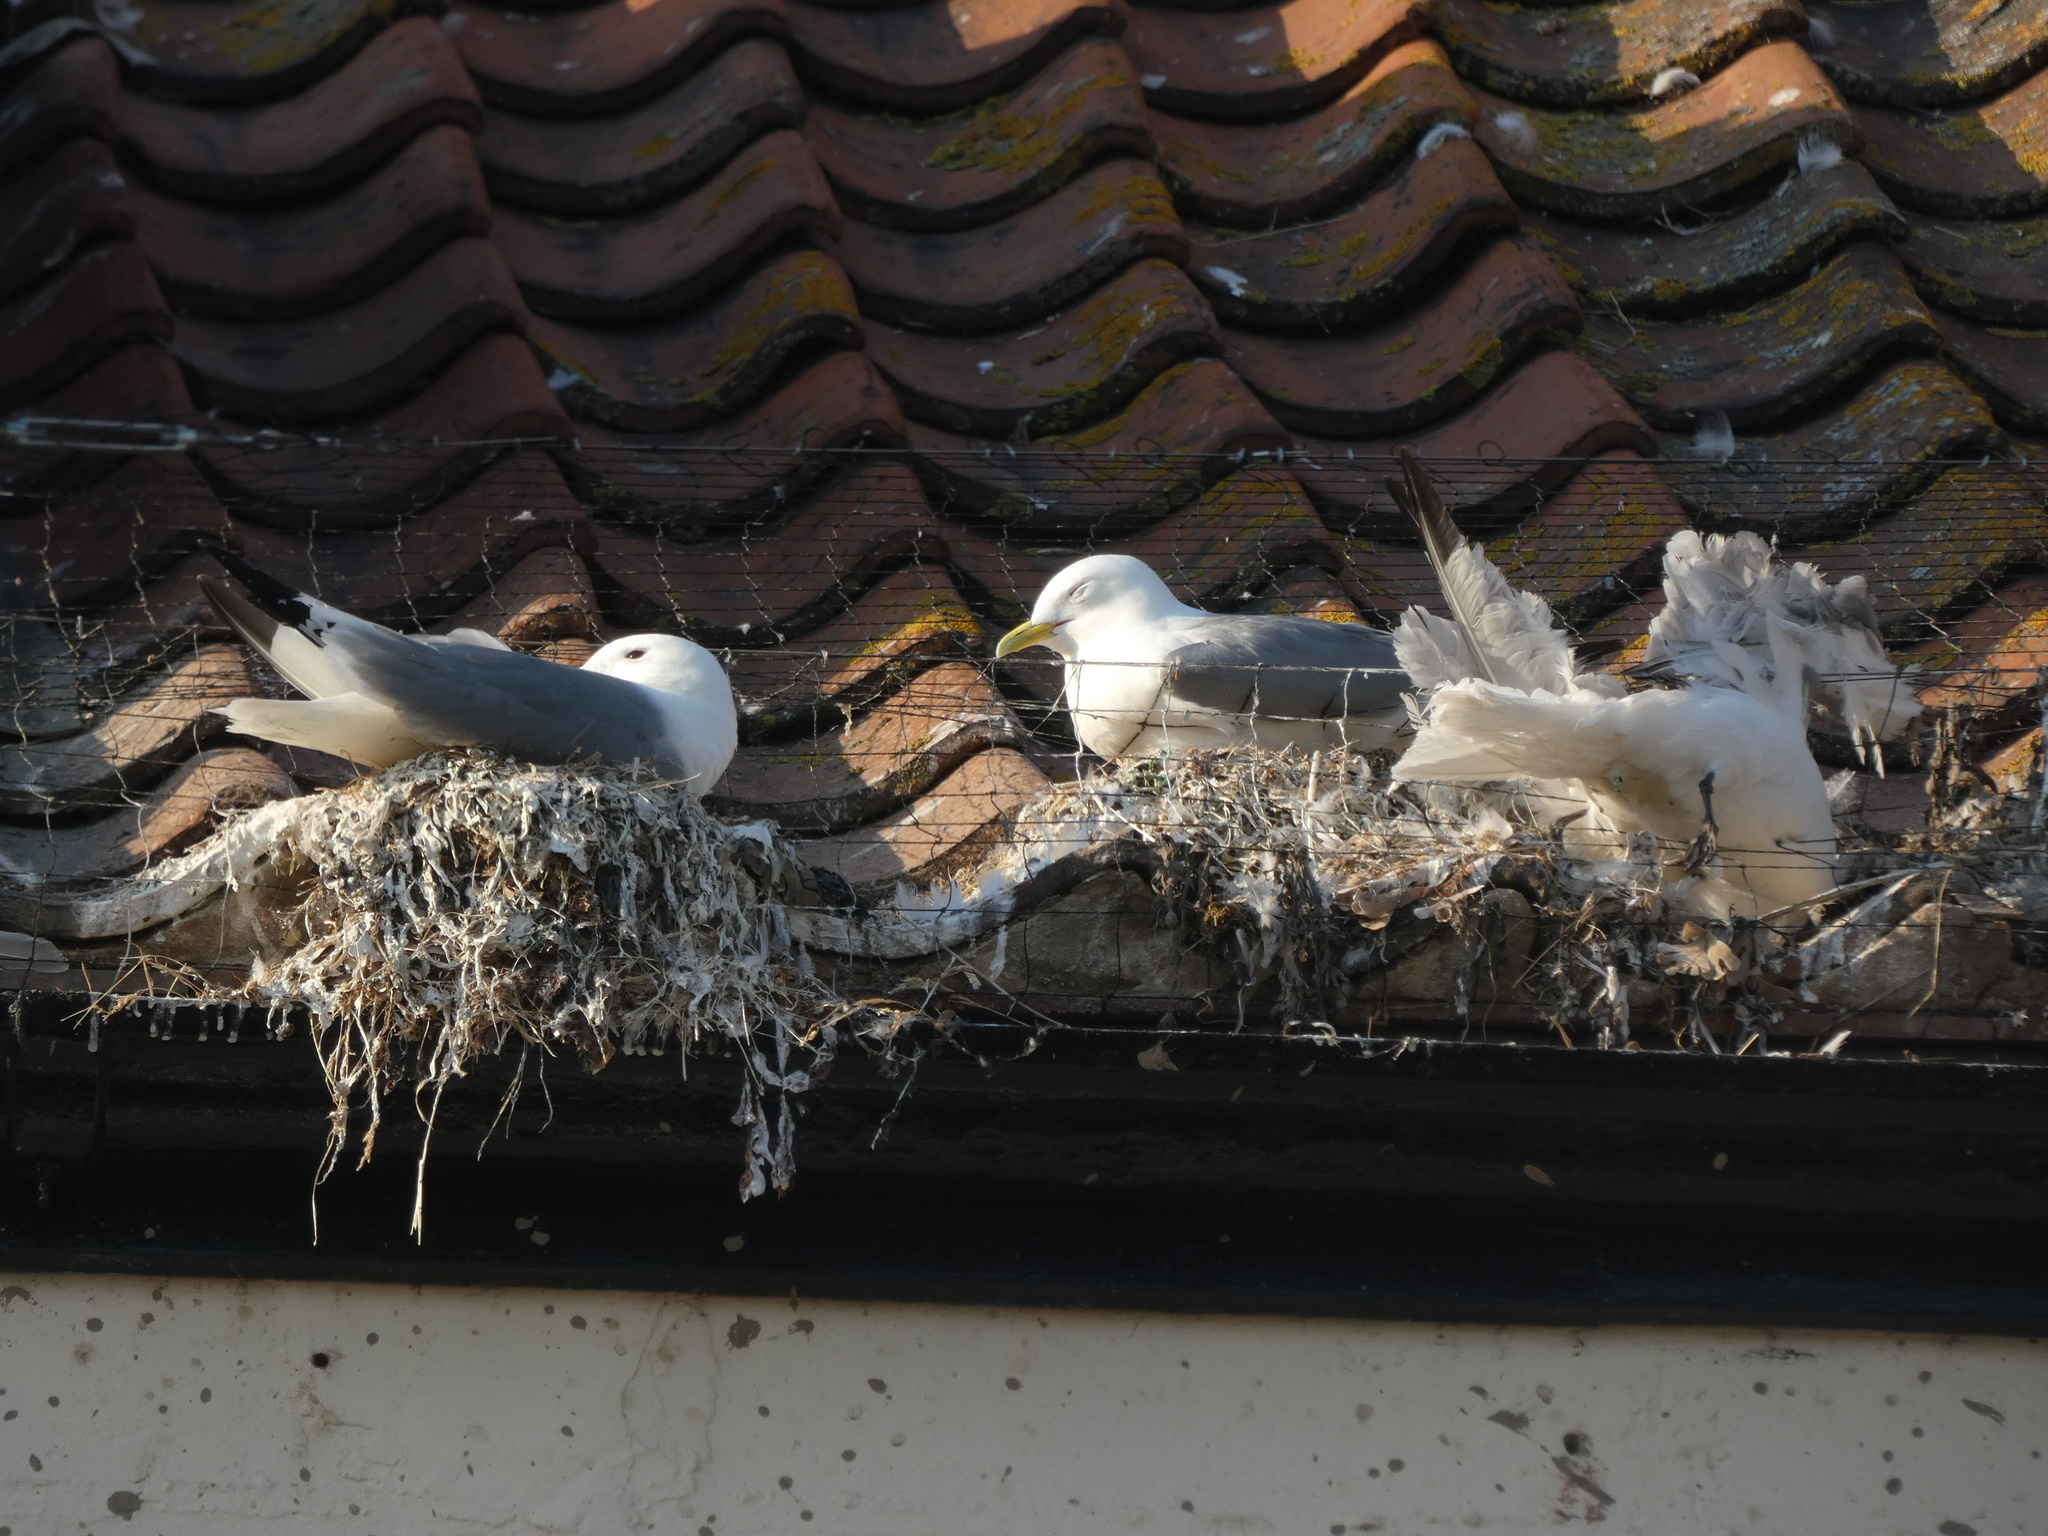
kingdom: Animalia
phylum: Chordata
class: Aves
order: Charadriiformes
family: Laridae
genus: Rissa
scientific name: Rissa tridactyla
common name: Black-legged kittiwake
